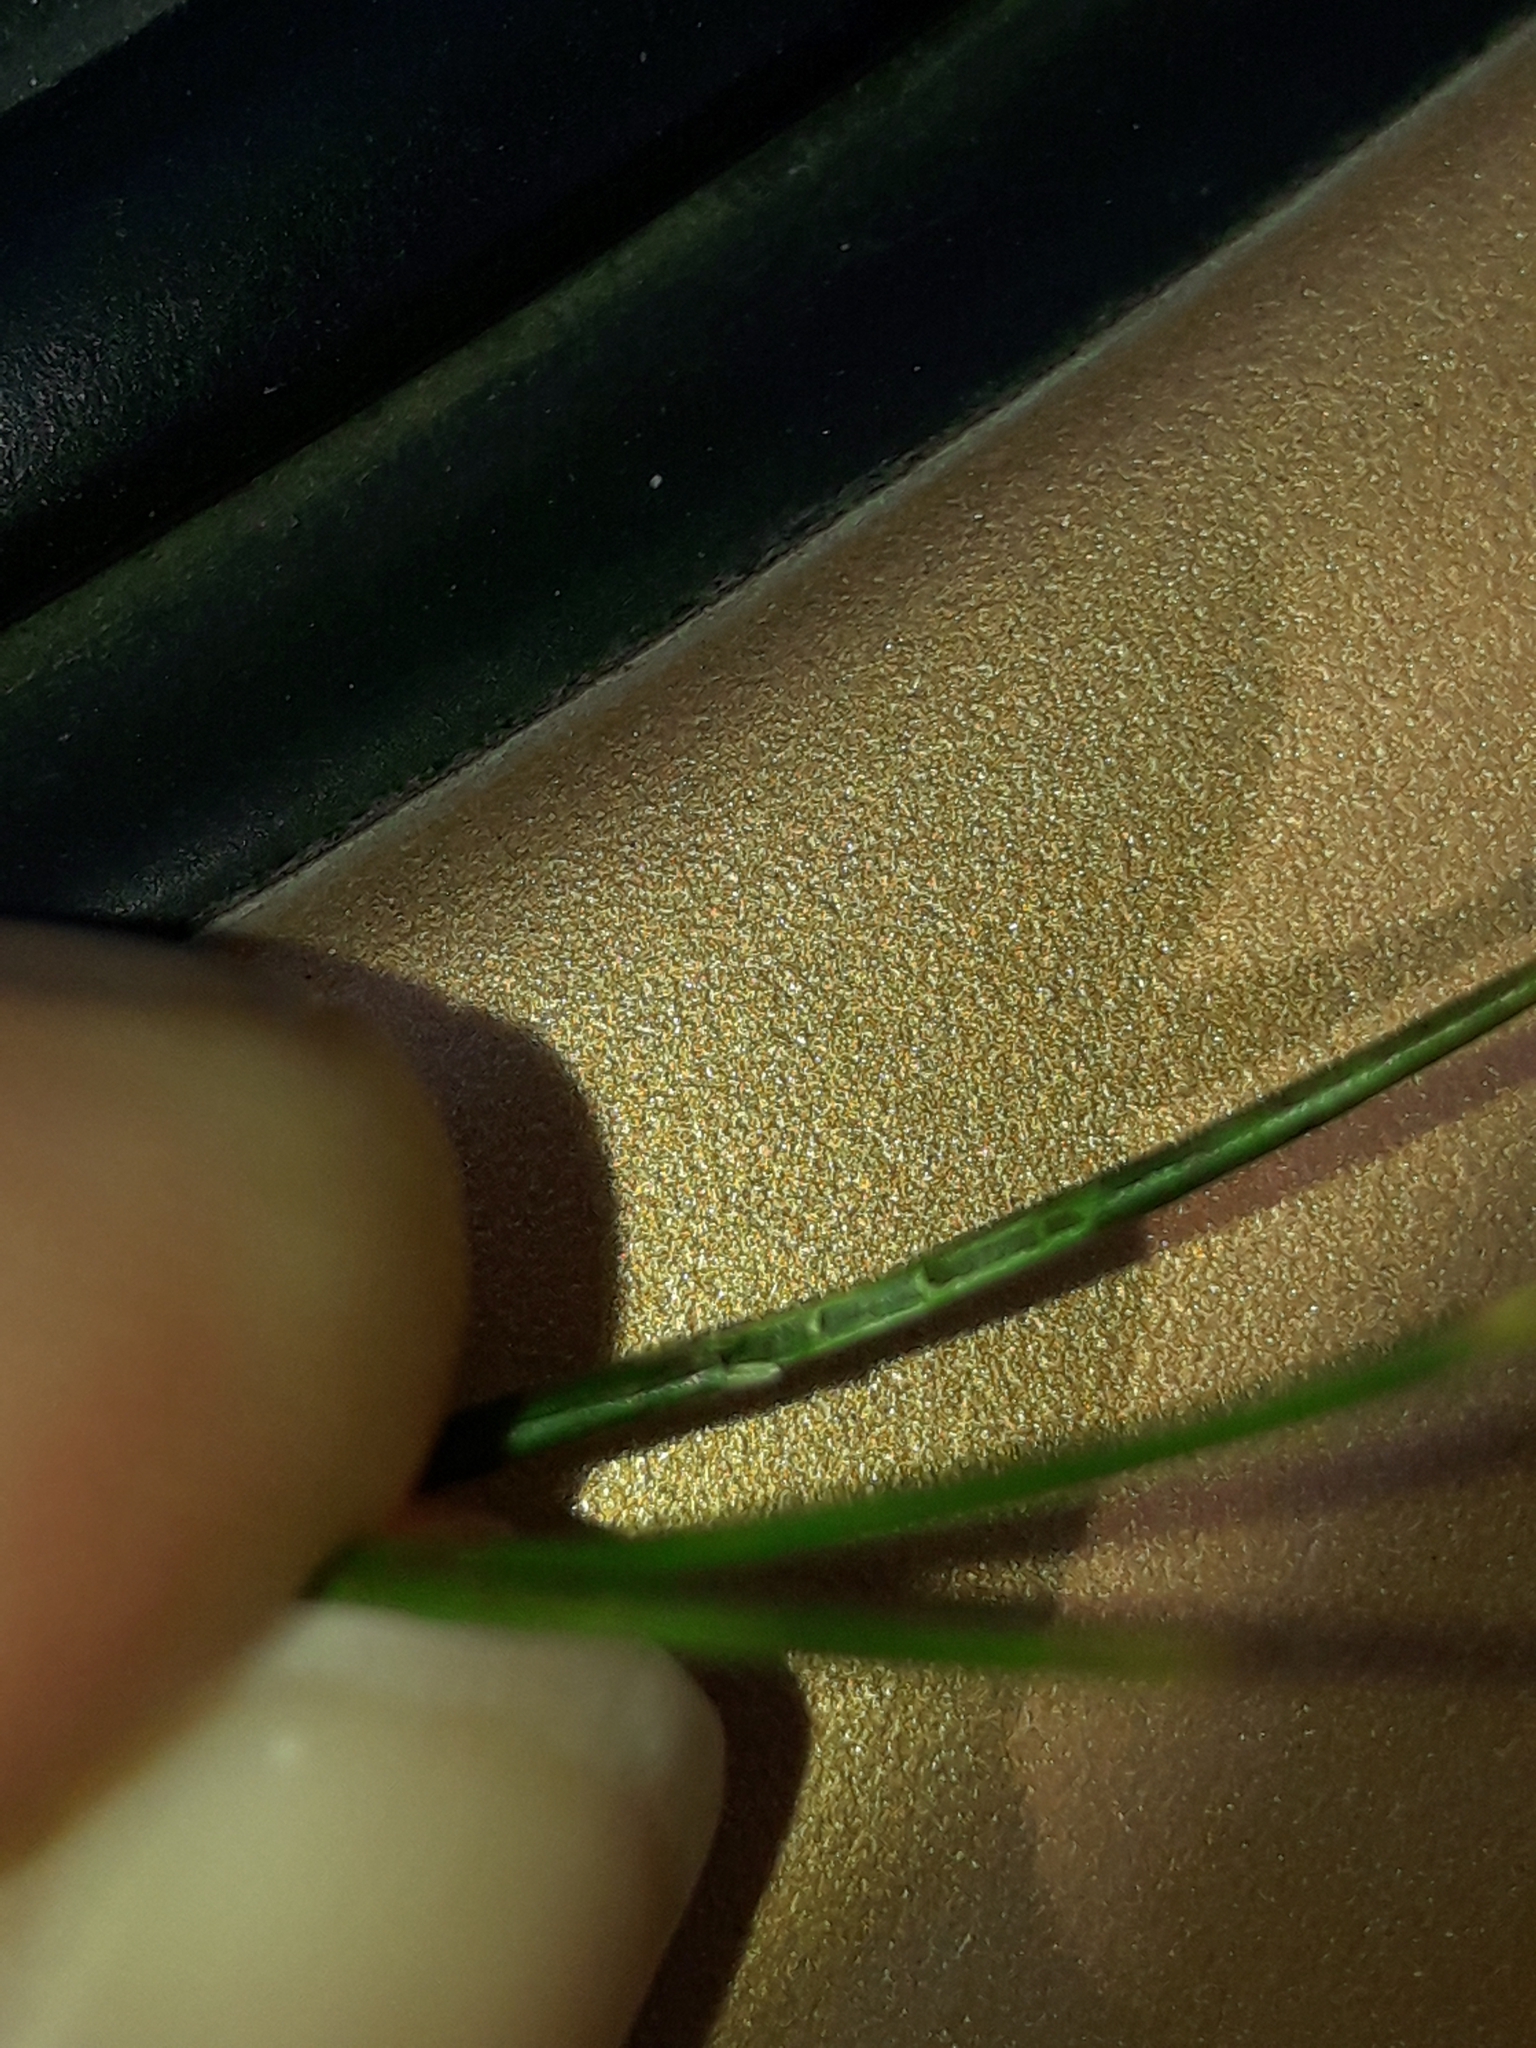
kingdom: Plantae
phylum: Tracheophyta
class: Liliopsida
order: Poales
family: Juncaceae
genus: Juncus
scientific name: Juncus articulatus
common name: Jointed rush
